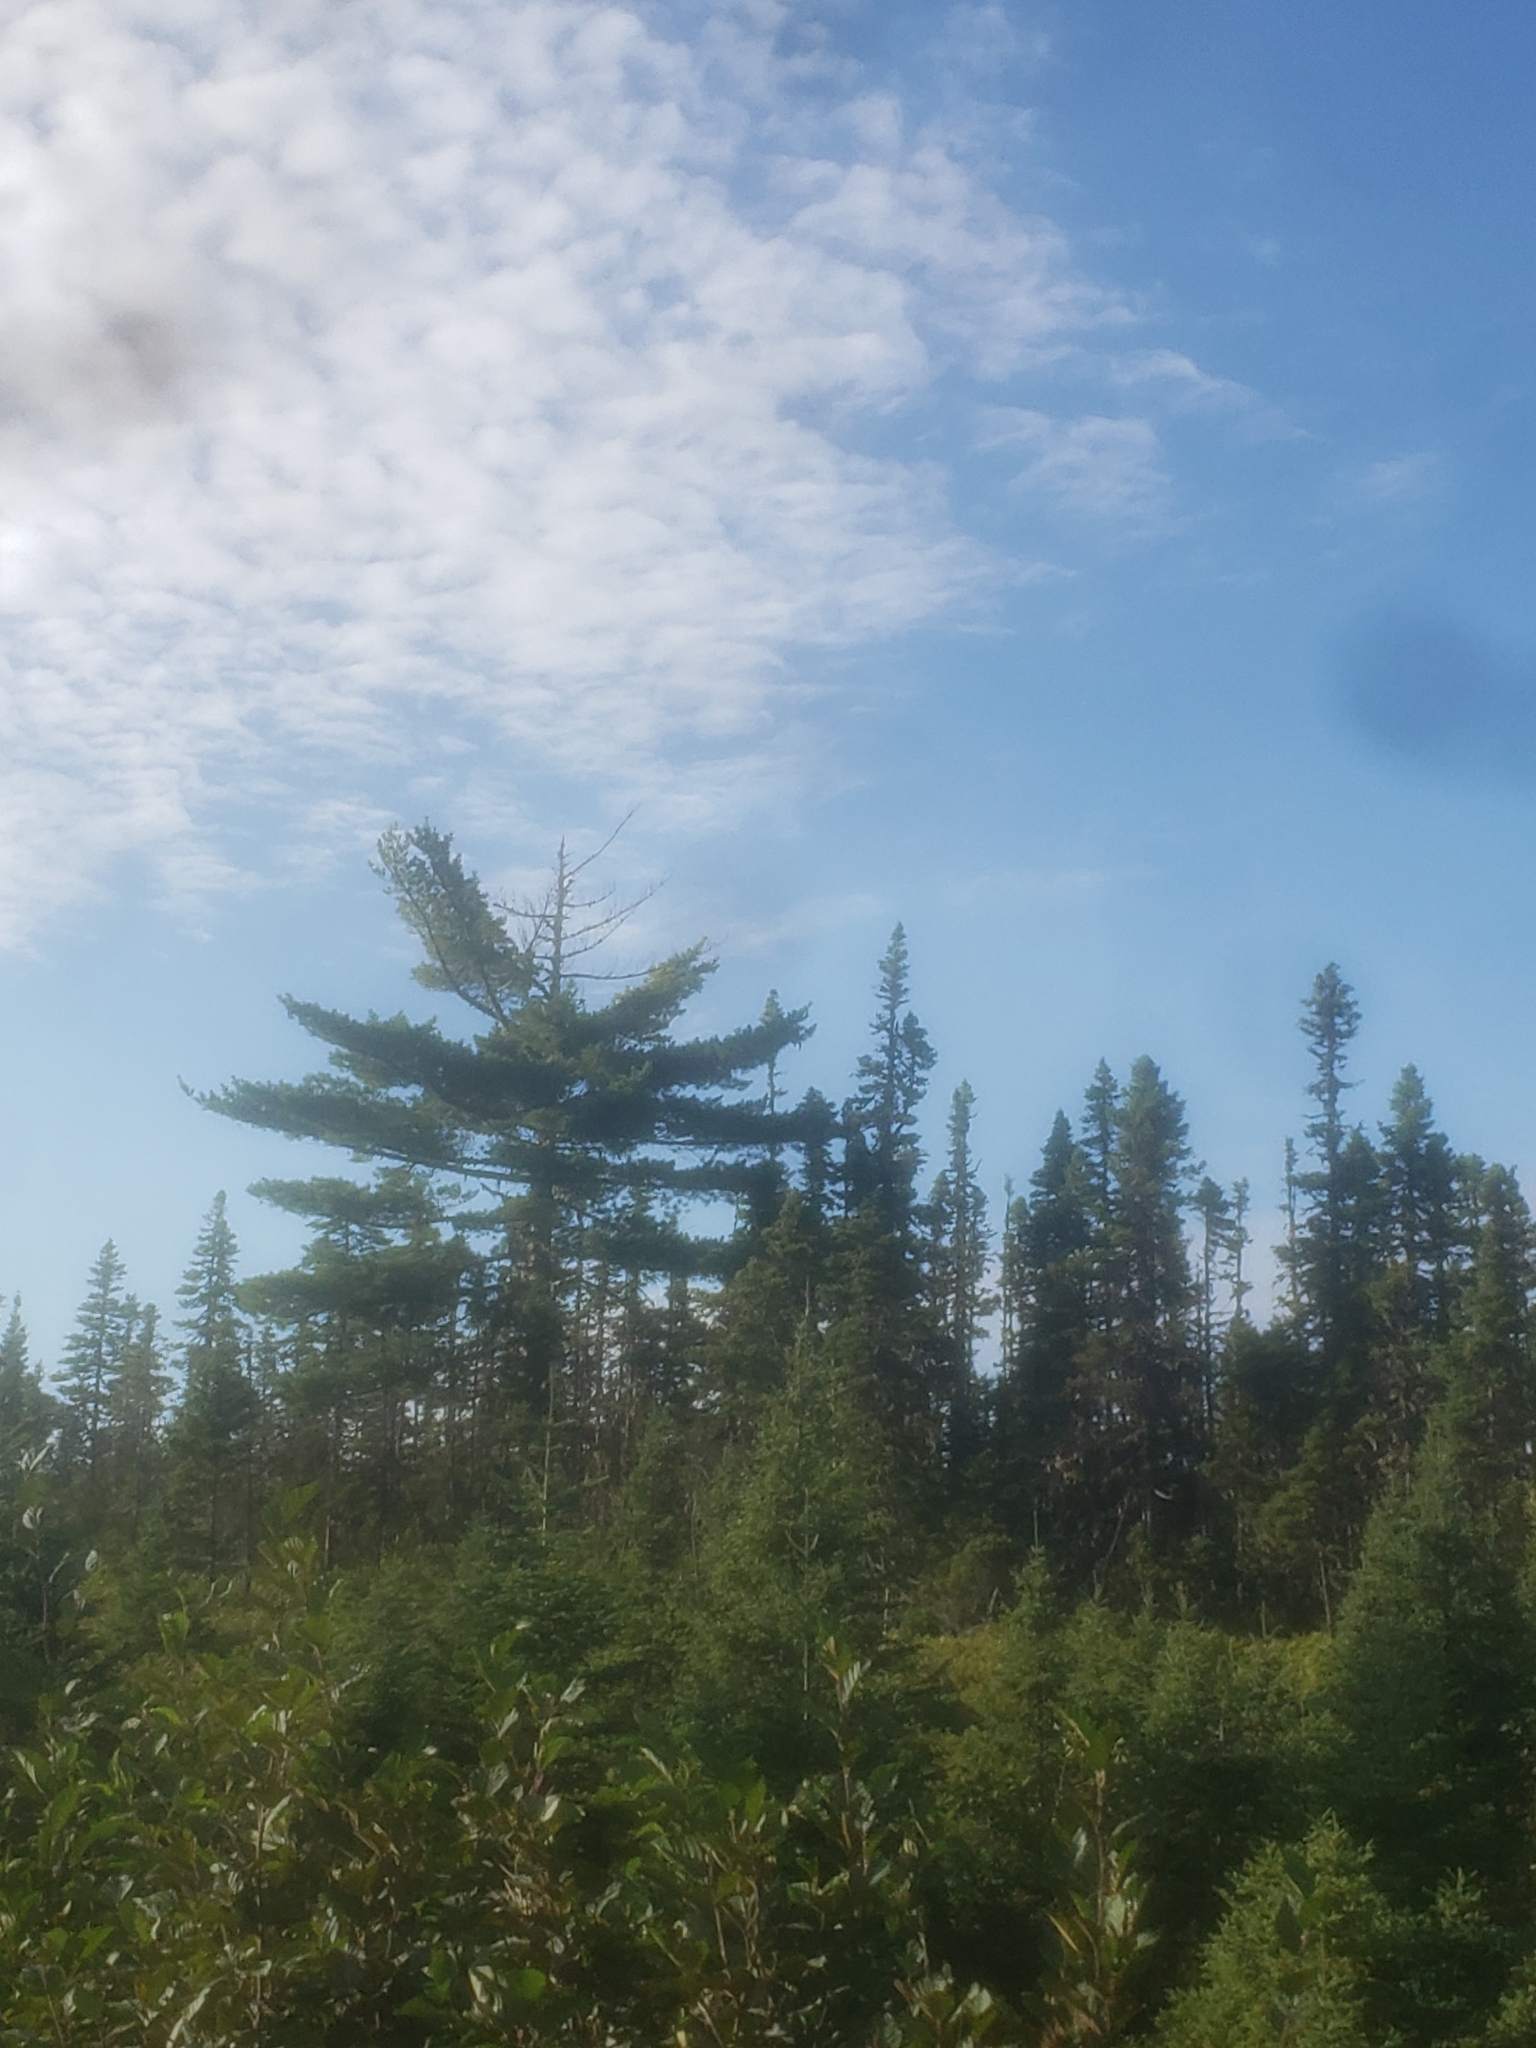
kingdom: Plantae
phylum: Tracheophyta
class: Pinopsida
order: Pinales
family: Pinaceae
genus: Pinus
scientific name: Pinus strobus
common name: Weymouth pine
